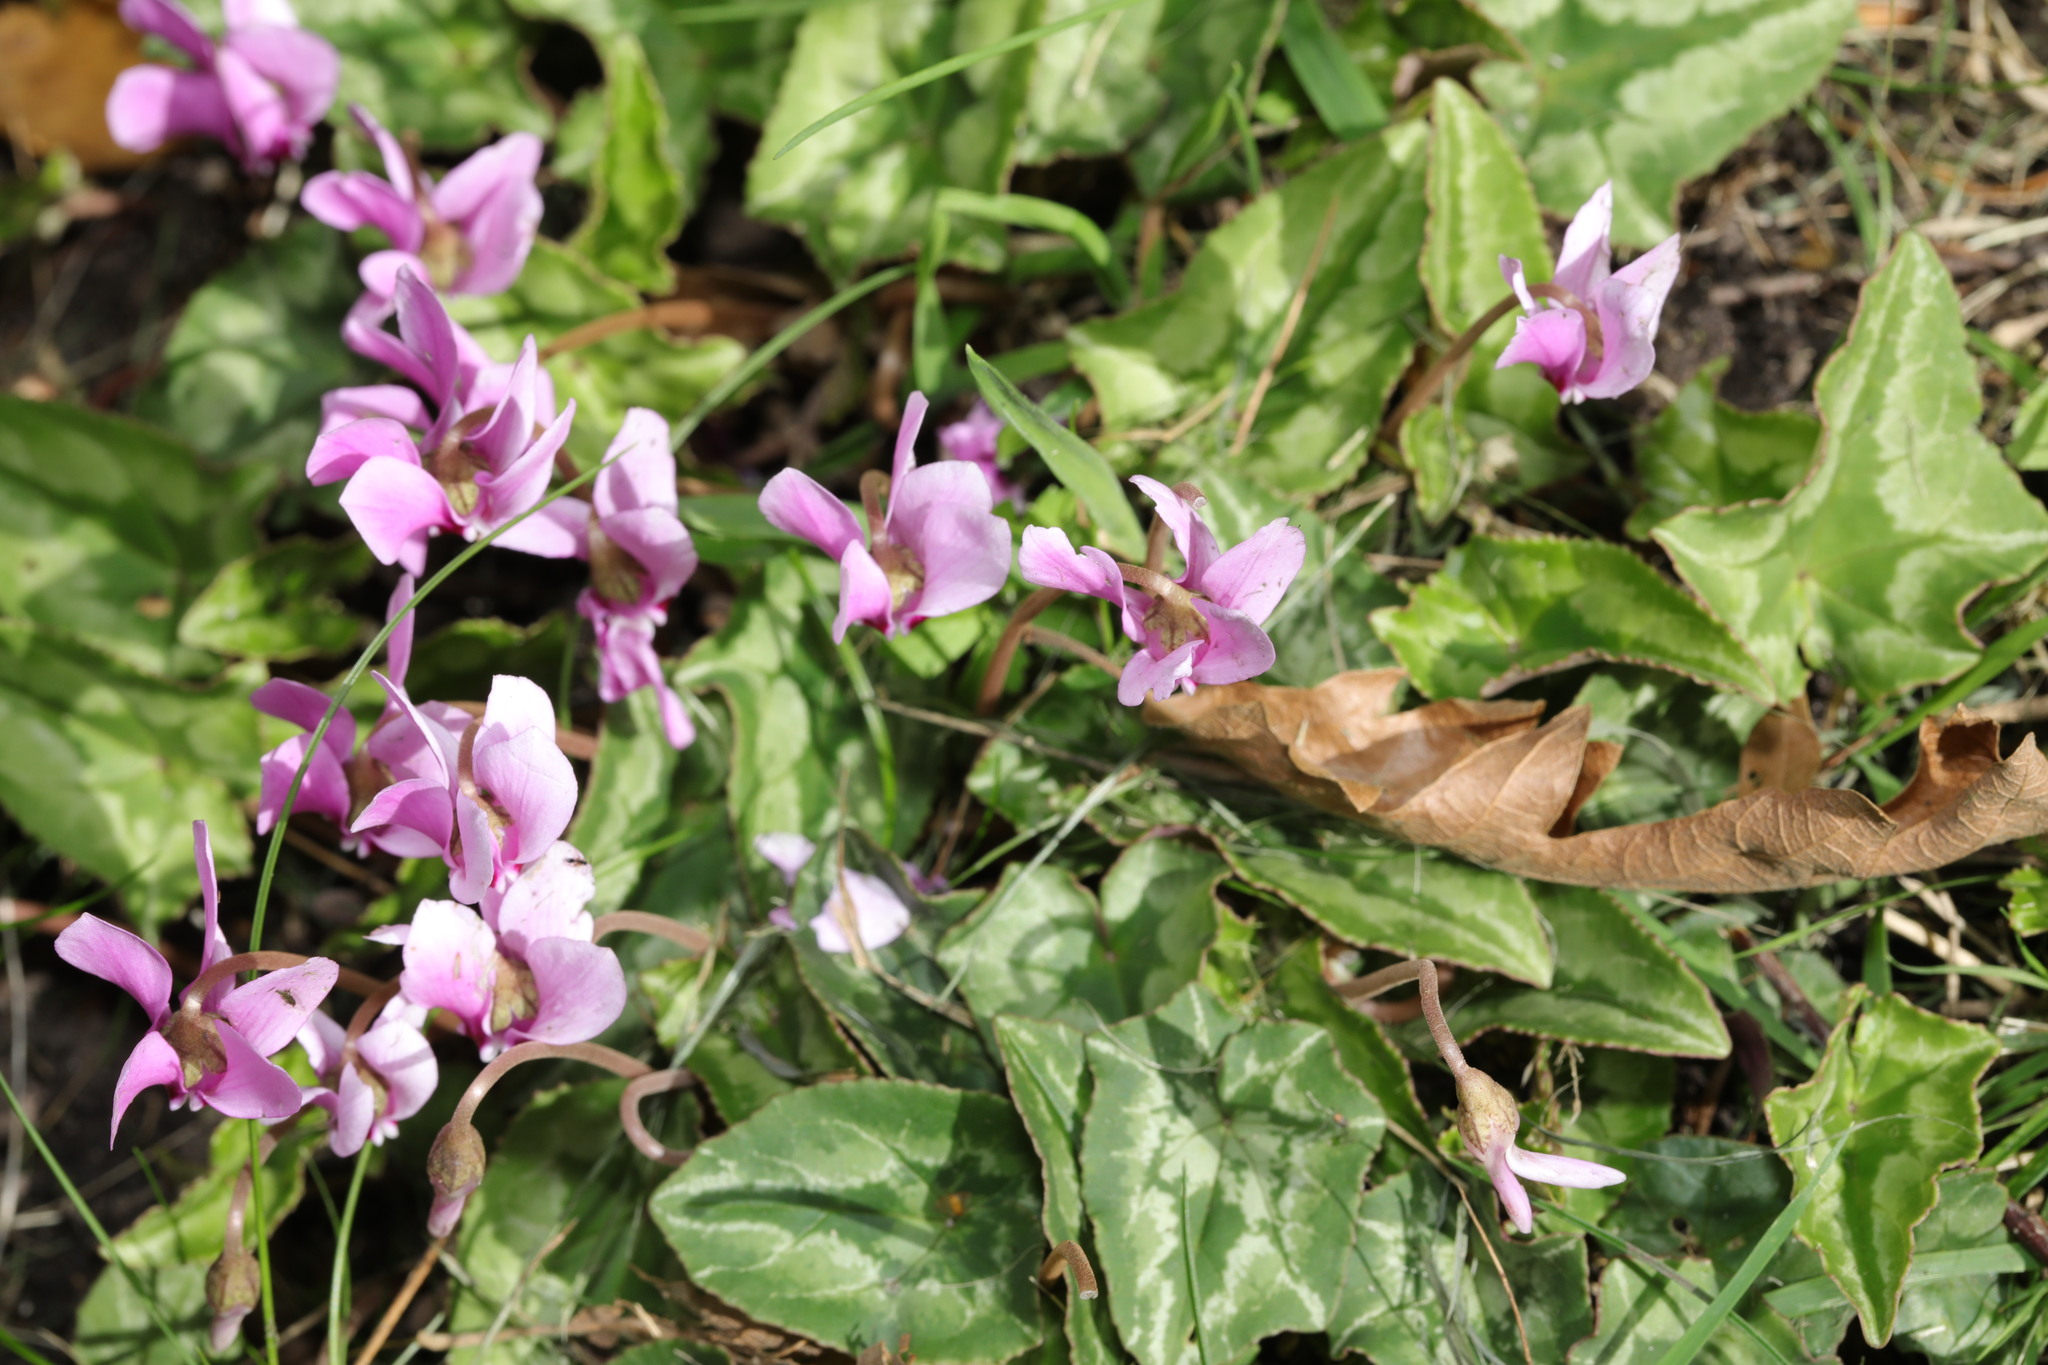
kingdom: Plantae
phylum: Tracheophyta
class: Magnoliopsida
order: Ericales
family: Primulaceae
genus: Cyclamen
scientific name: Cyclamen hederifolium
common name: Sowbread
